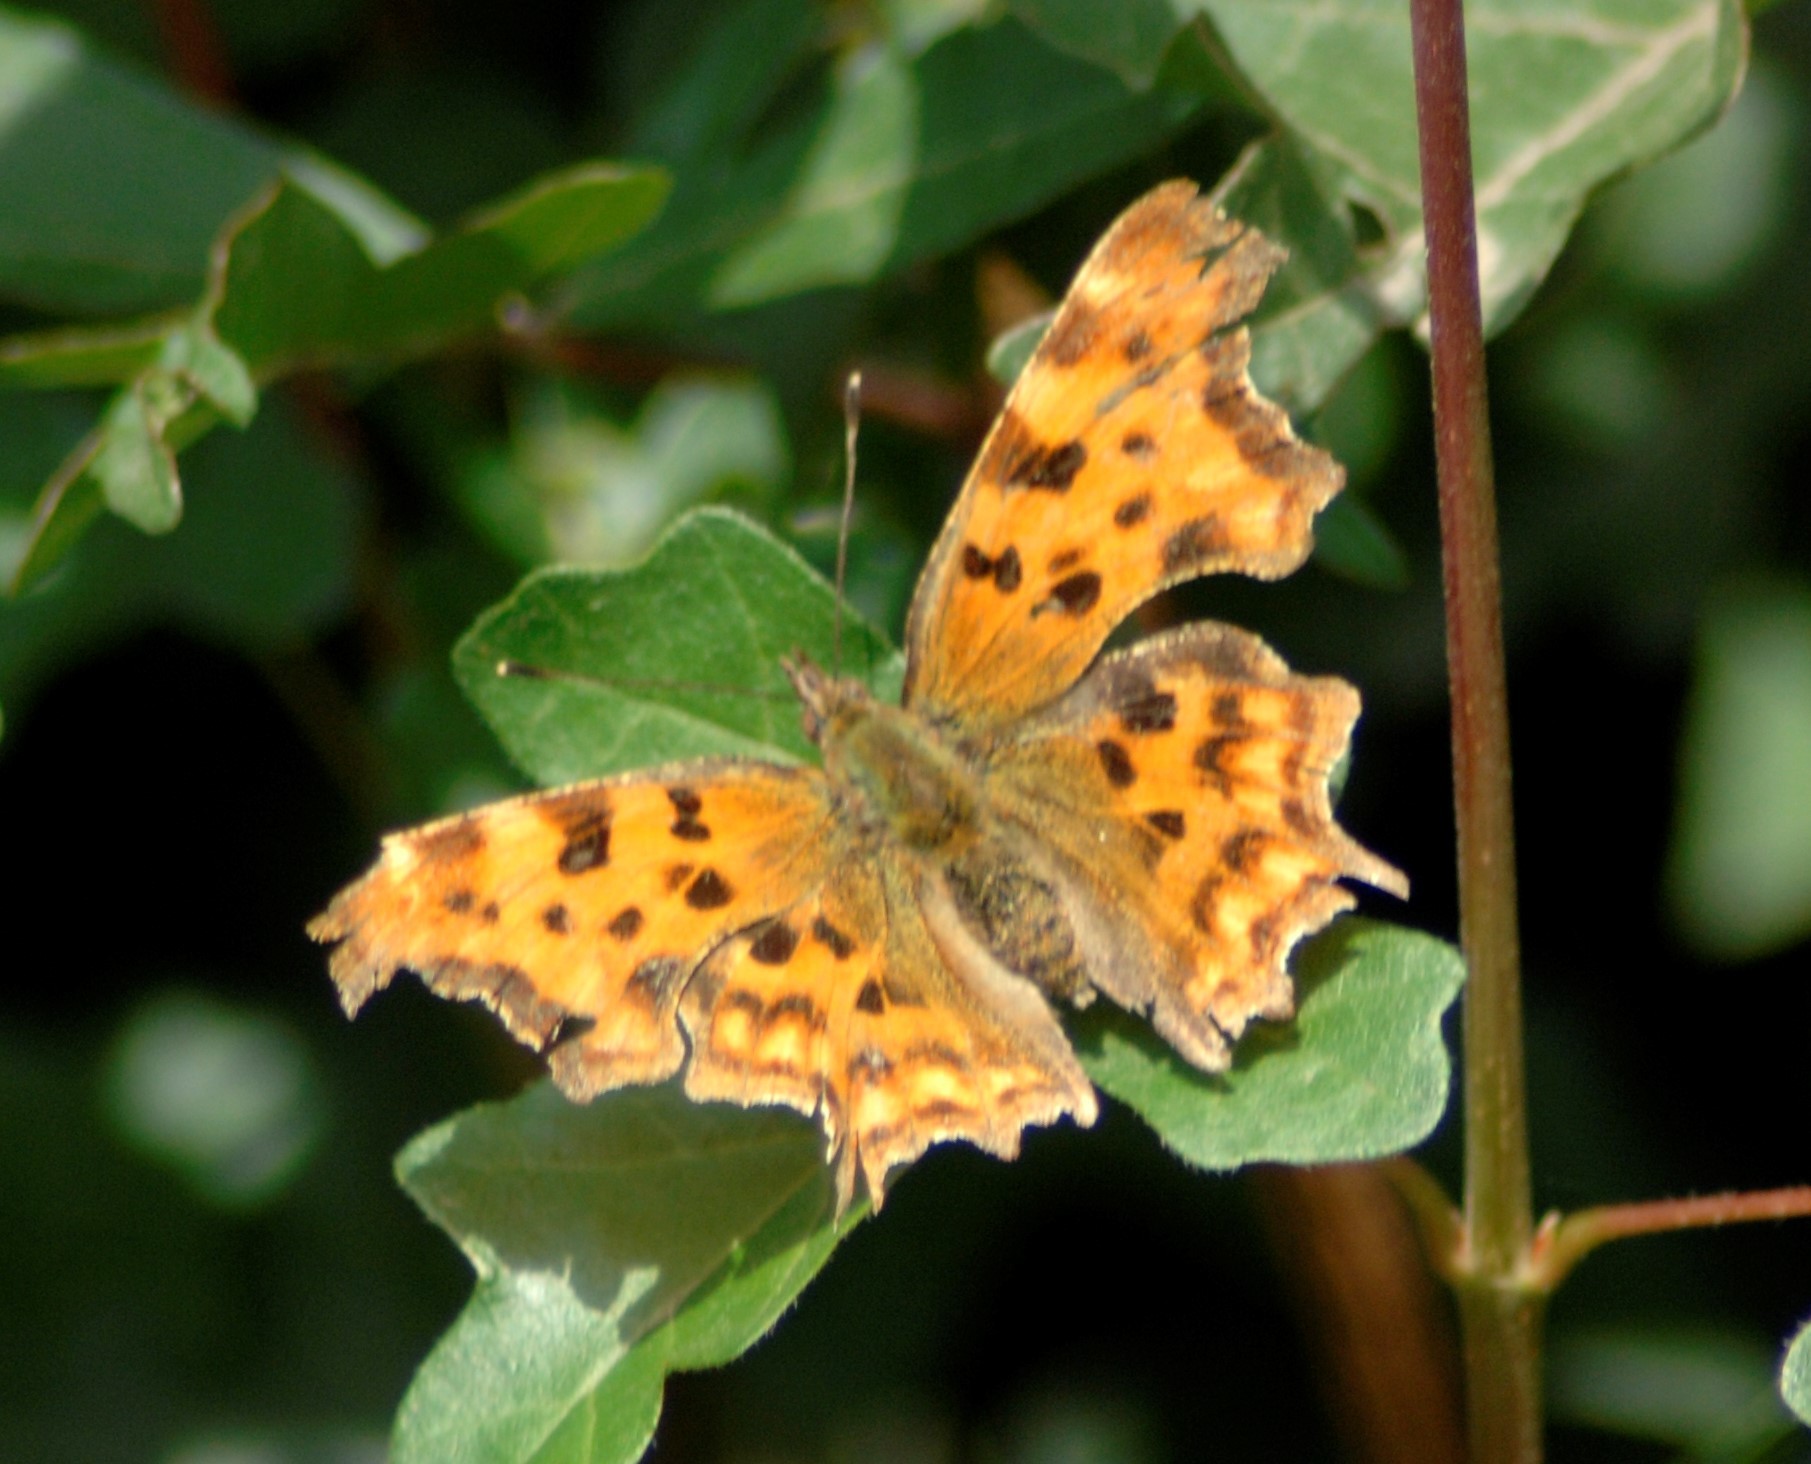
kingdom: Animalia
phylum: Arthropoda
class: Insecta
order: Lepidoptera
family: Nymphalidae
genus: Polygonia
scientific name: Polygonia c-album
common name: Comma
